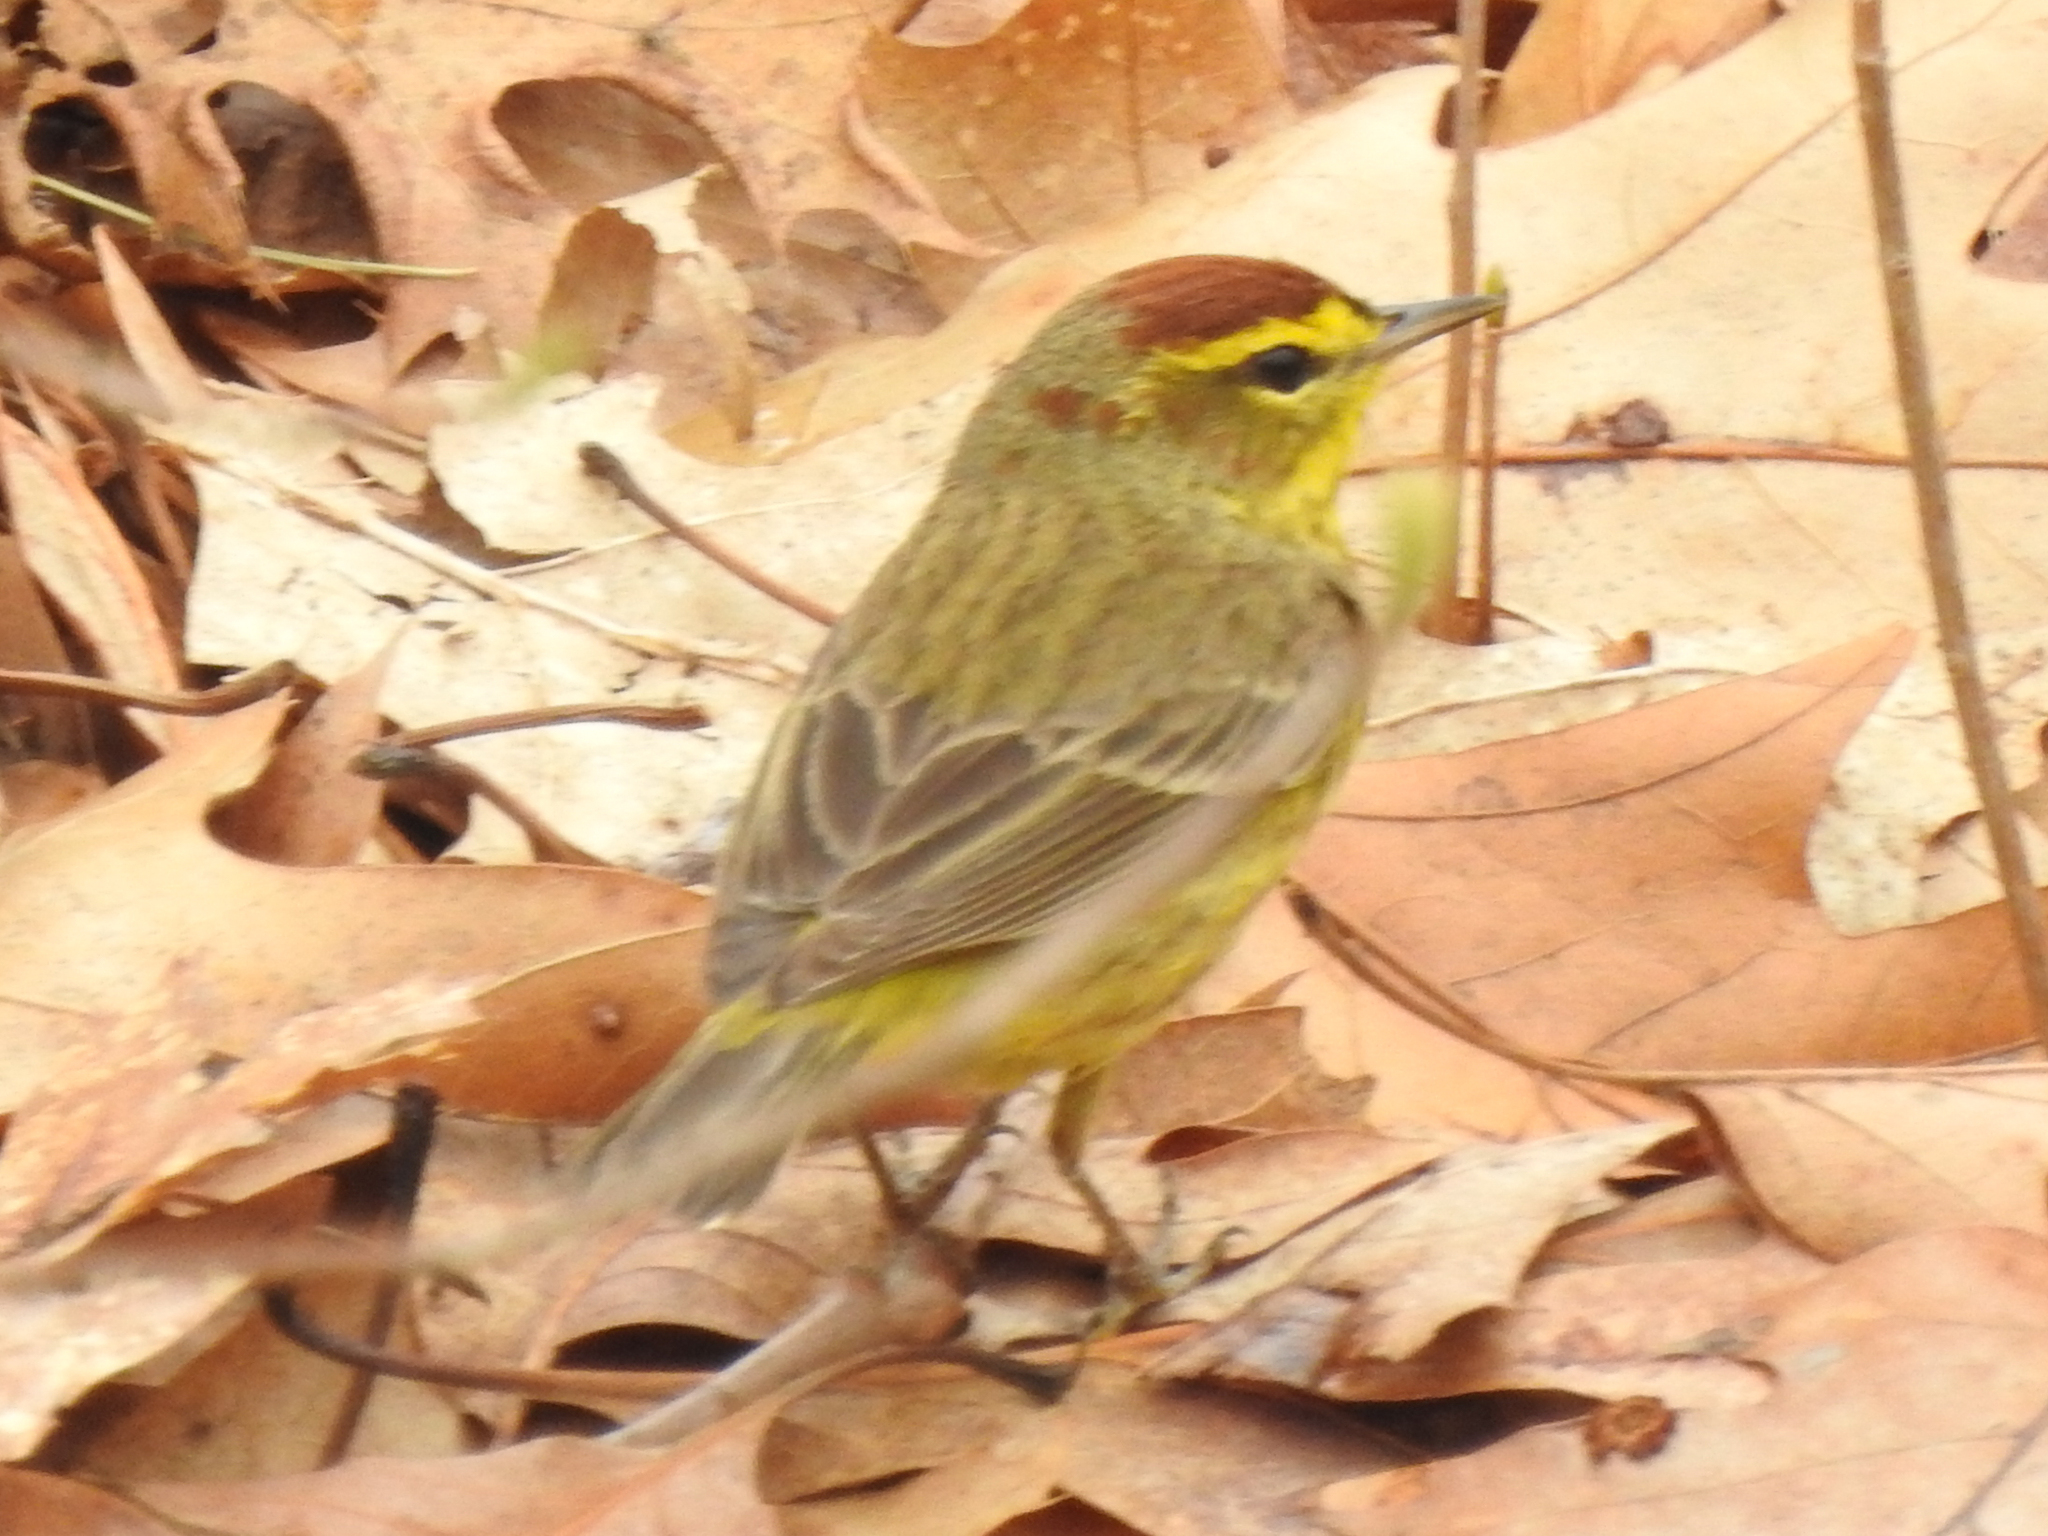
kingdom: Animalia
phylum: Chordata
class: Aves
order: Passeriformes
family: Parulidae
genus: Setophaga
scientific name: Setophaga palmarum
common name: Palm warbler
